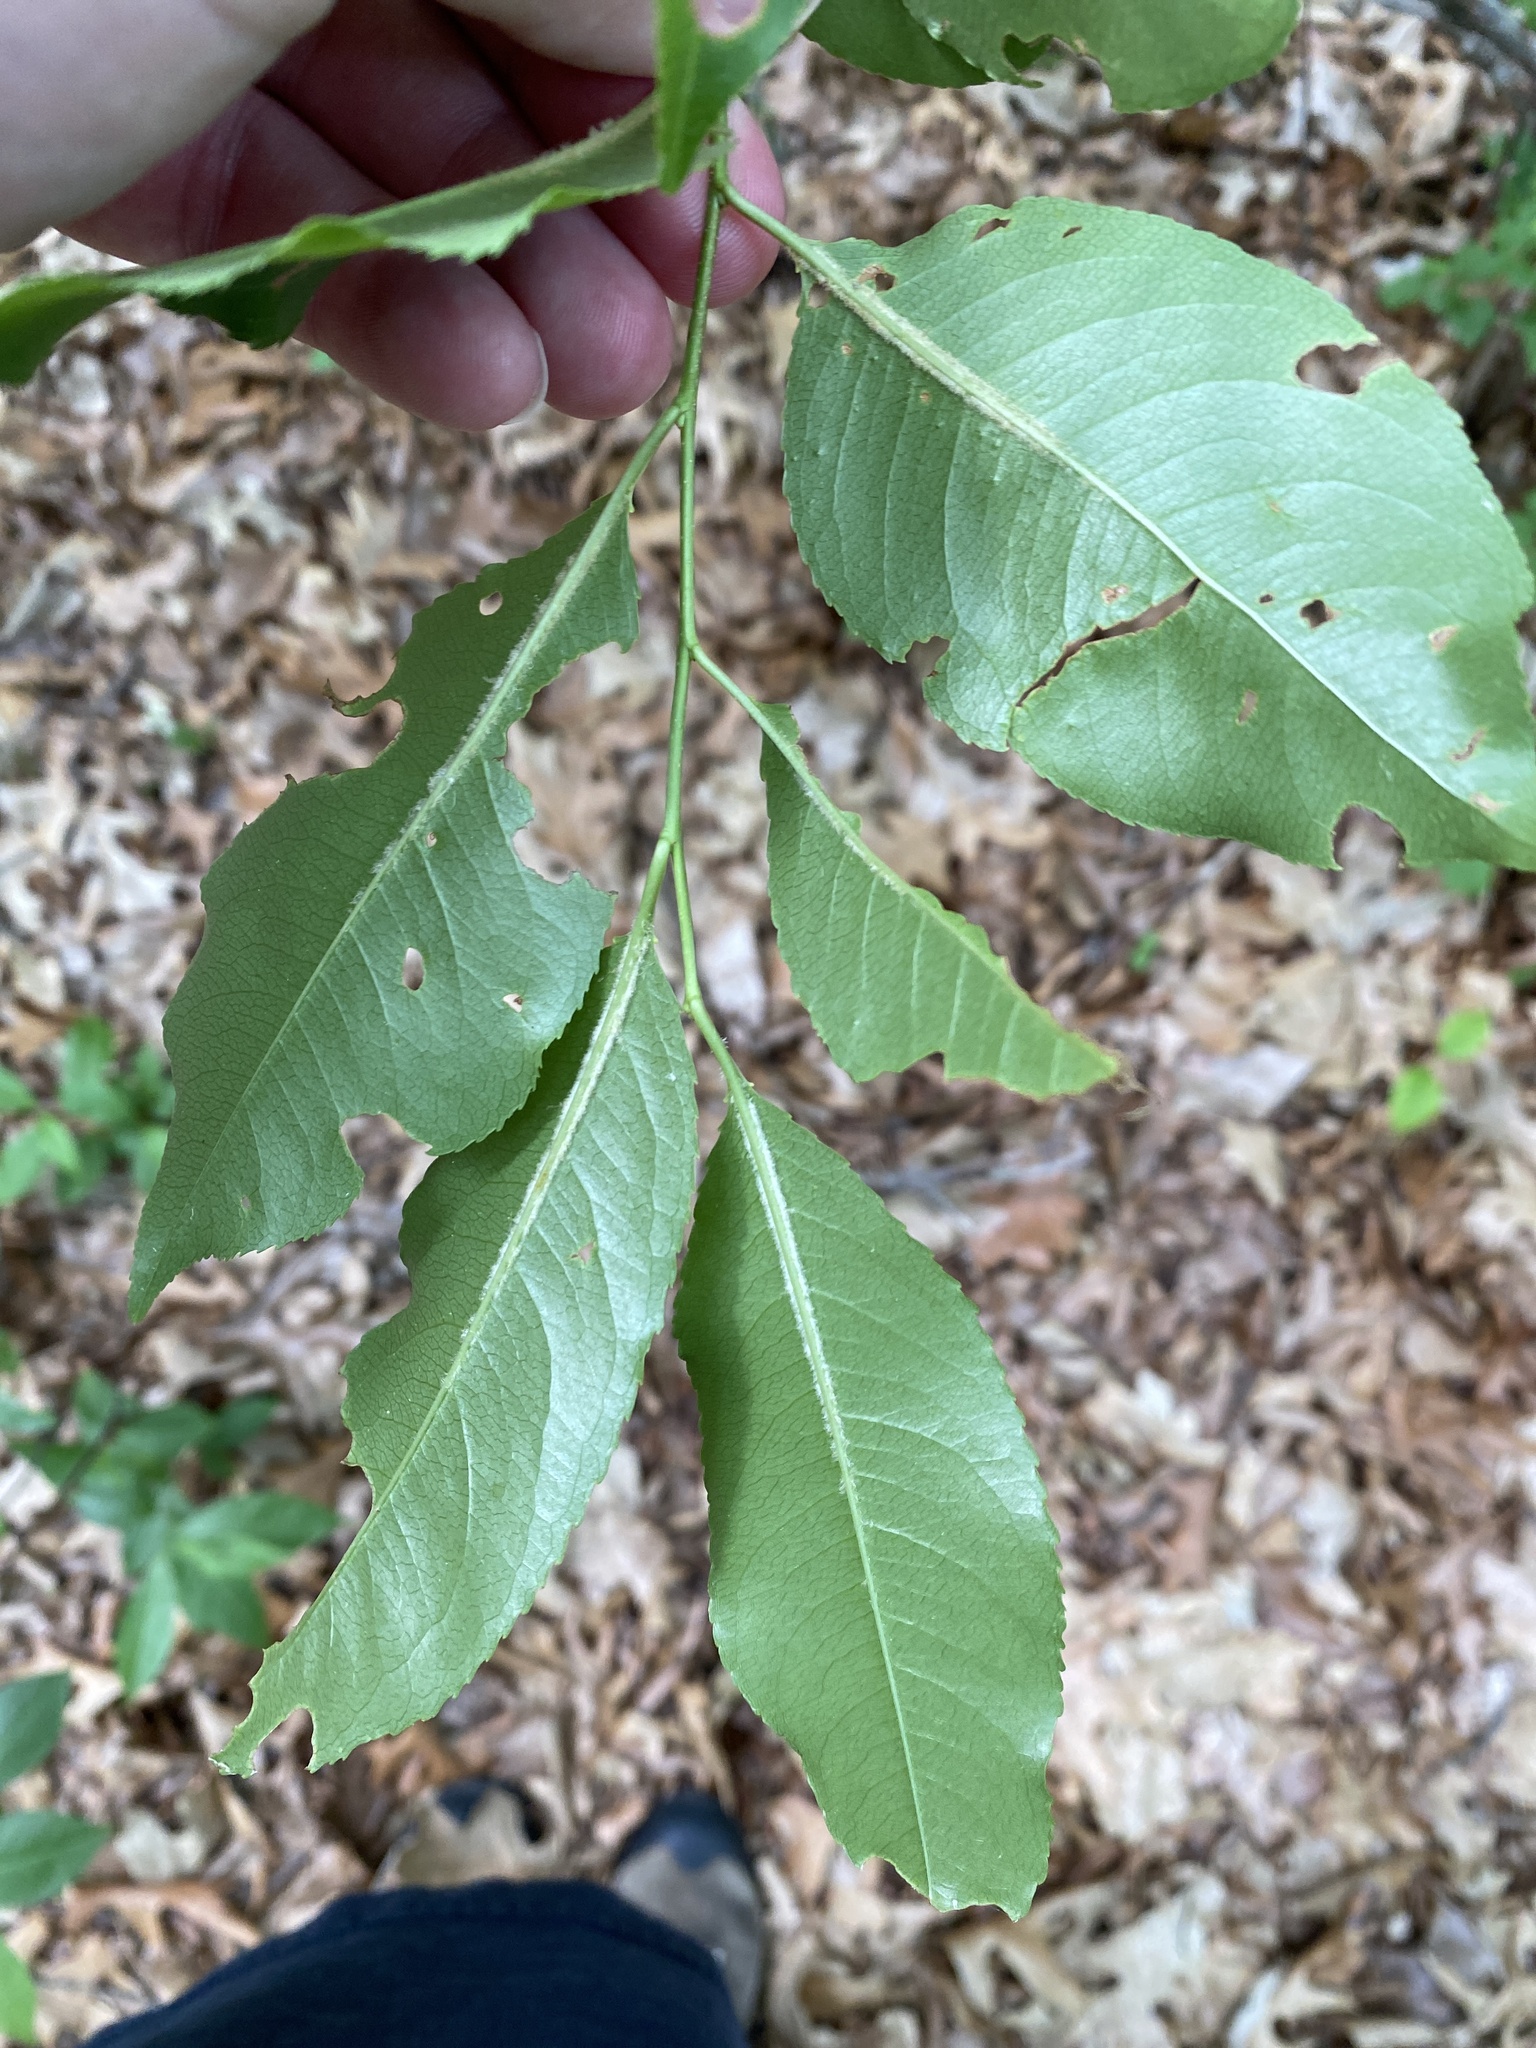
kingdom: Plantae
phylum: Tracheophyta
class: Magnoliopsida
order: Rosales
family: Rosaceae
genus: Prunus
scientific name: Prunus serotina
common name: Black cherry
